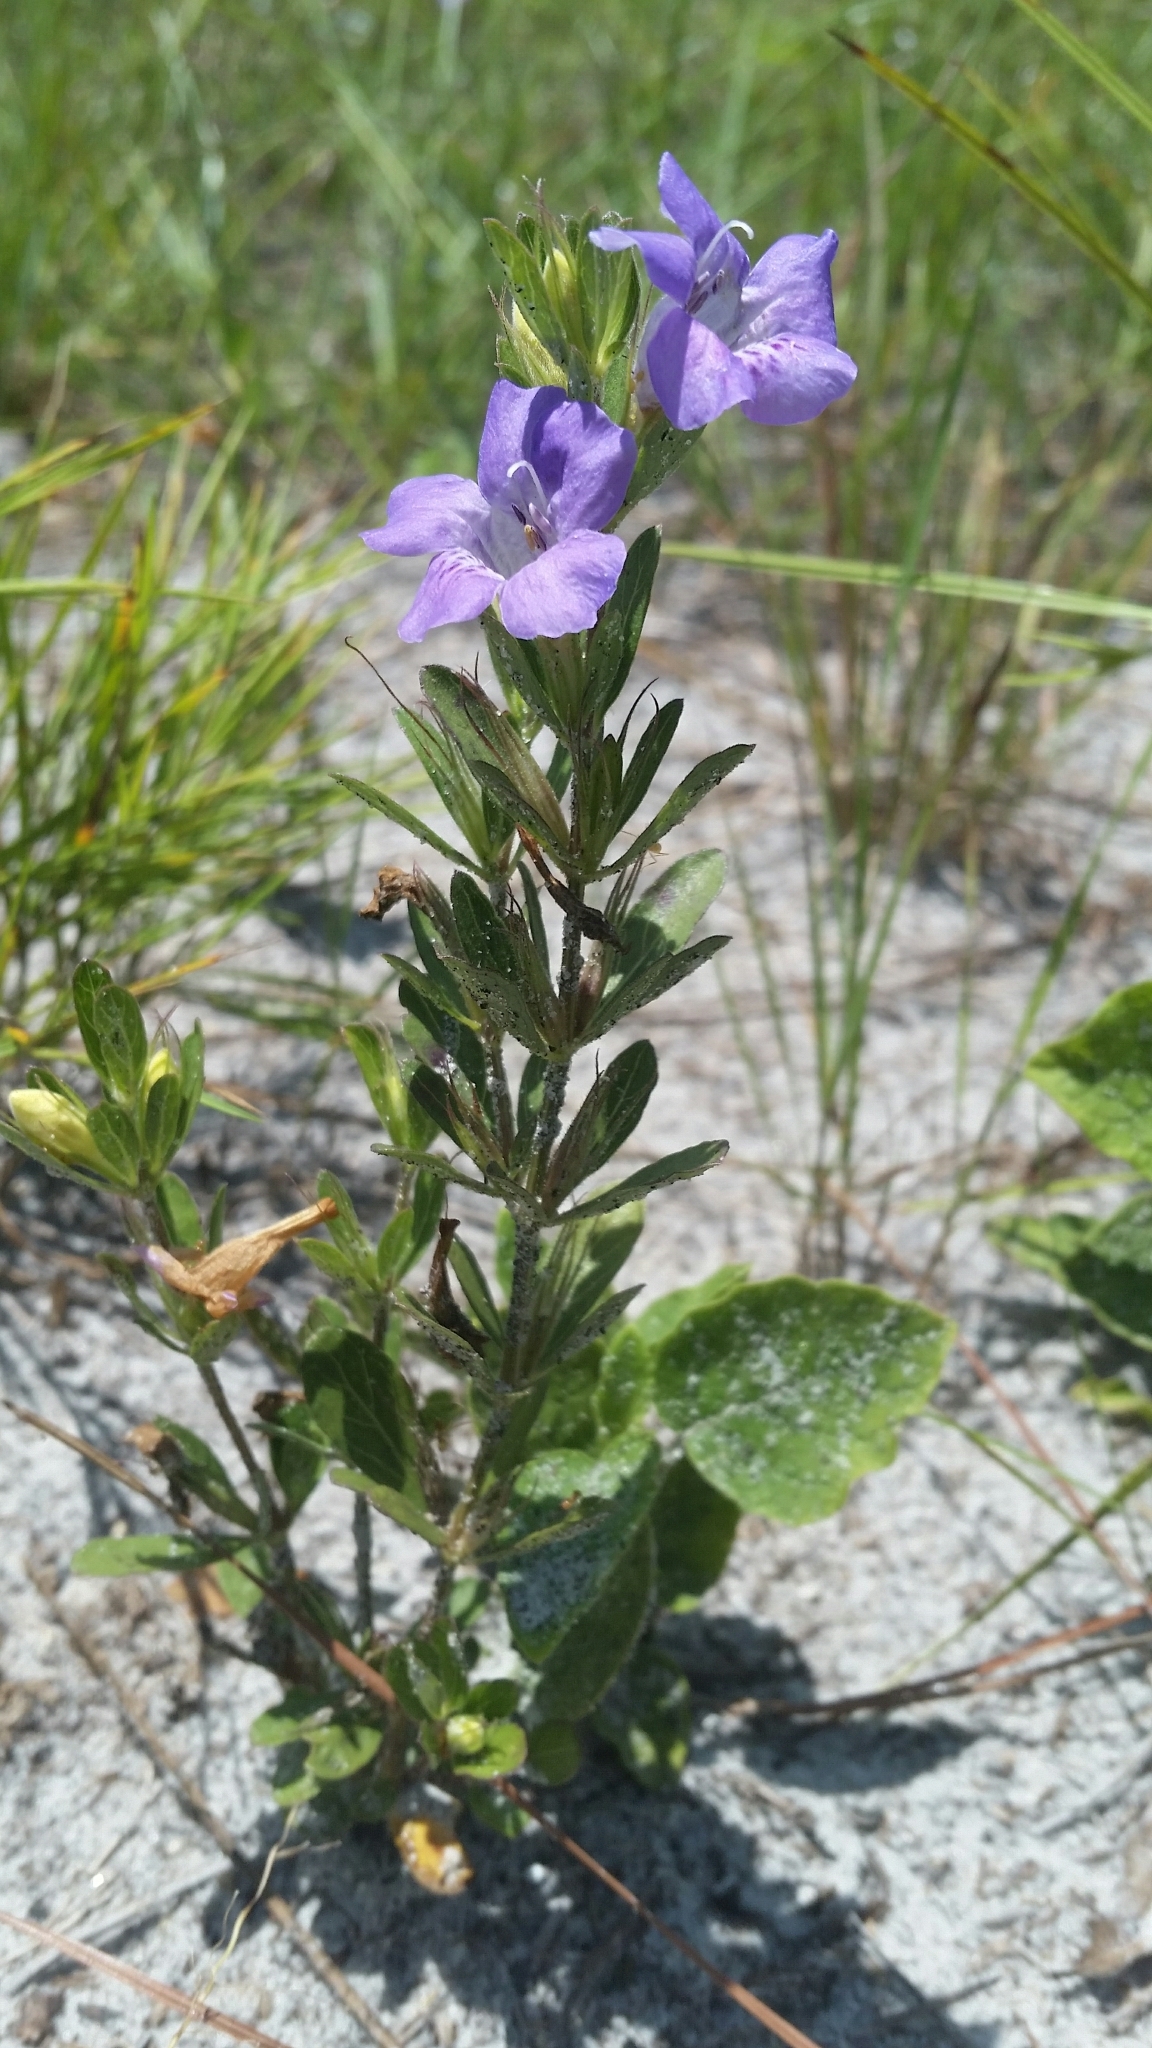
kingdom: Plantae
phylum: Tracheophyta
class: Magnoliopsida
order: Lamiales
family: Acanthaceae
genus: Dyschoriste
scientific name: Dyschoriste oblongifolia
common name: Blue twinflower
